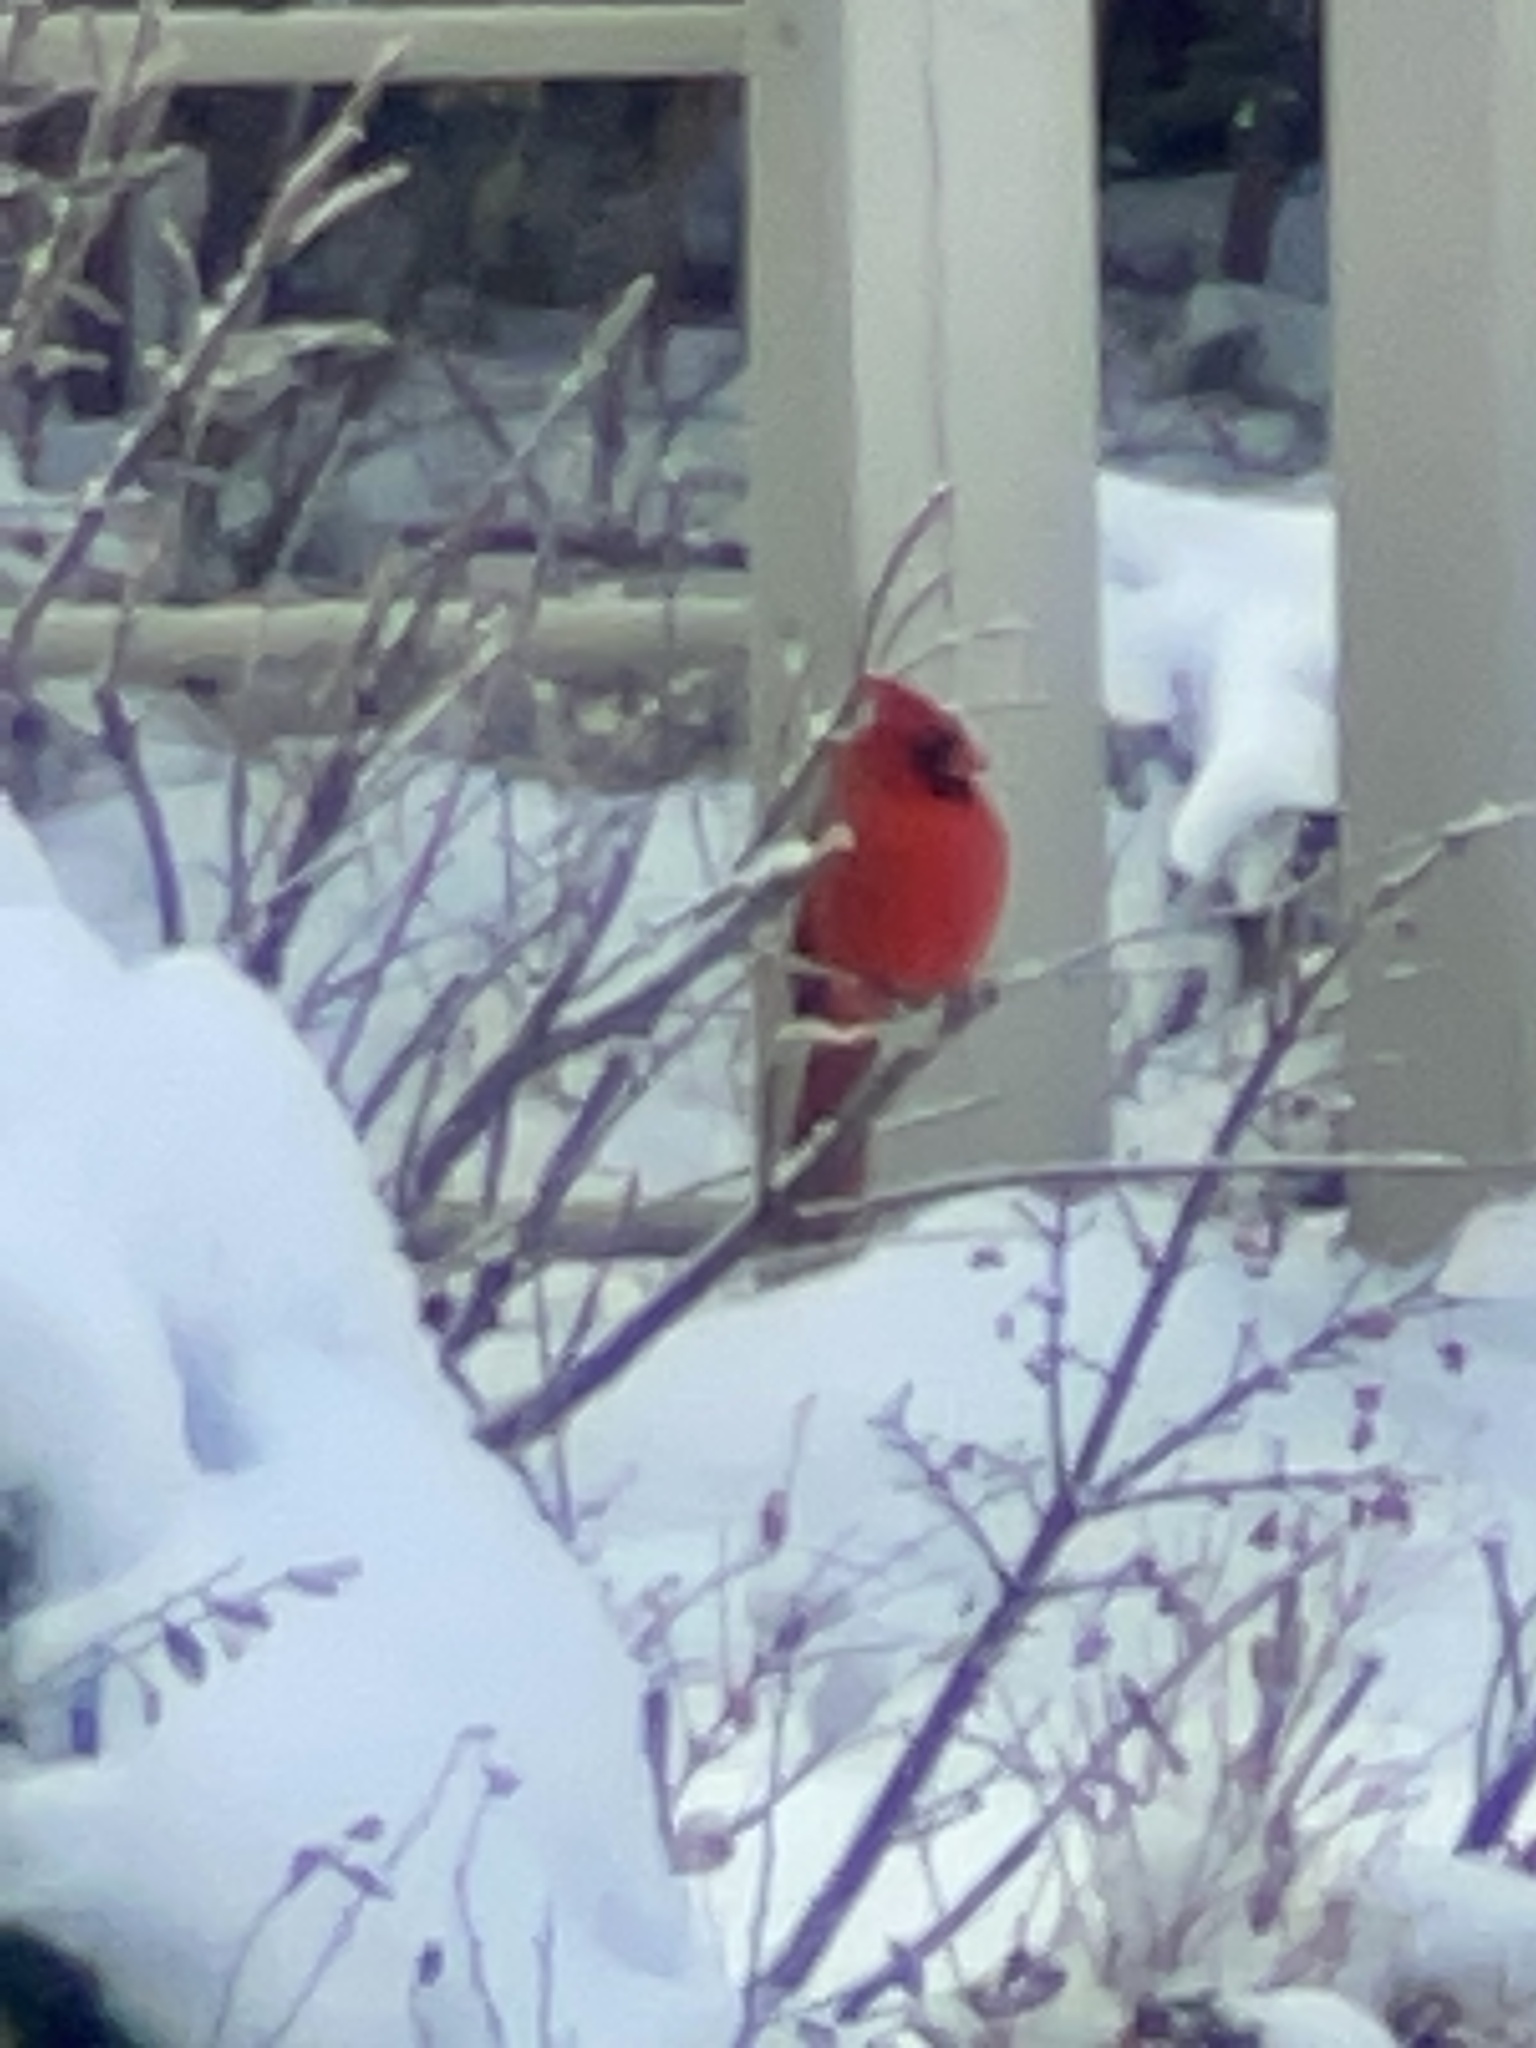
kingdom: Animalia
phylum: Chordata
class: Aves
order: Passeriformes
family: Cardinalidae
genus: Cardinalis
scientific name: Cardinalis cardinalis
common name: Northern cardinal
